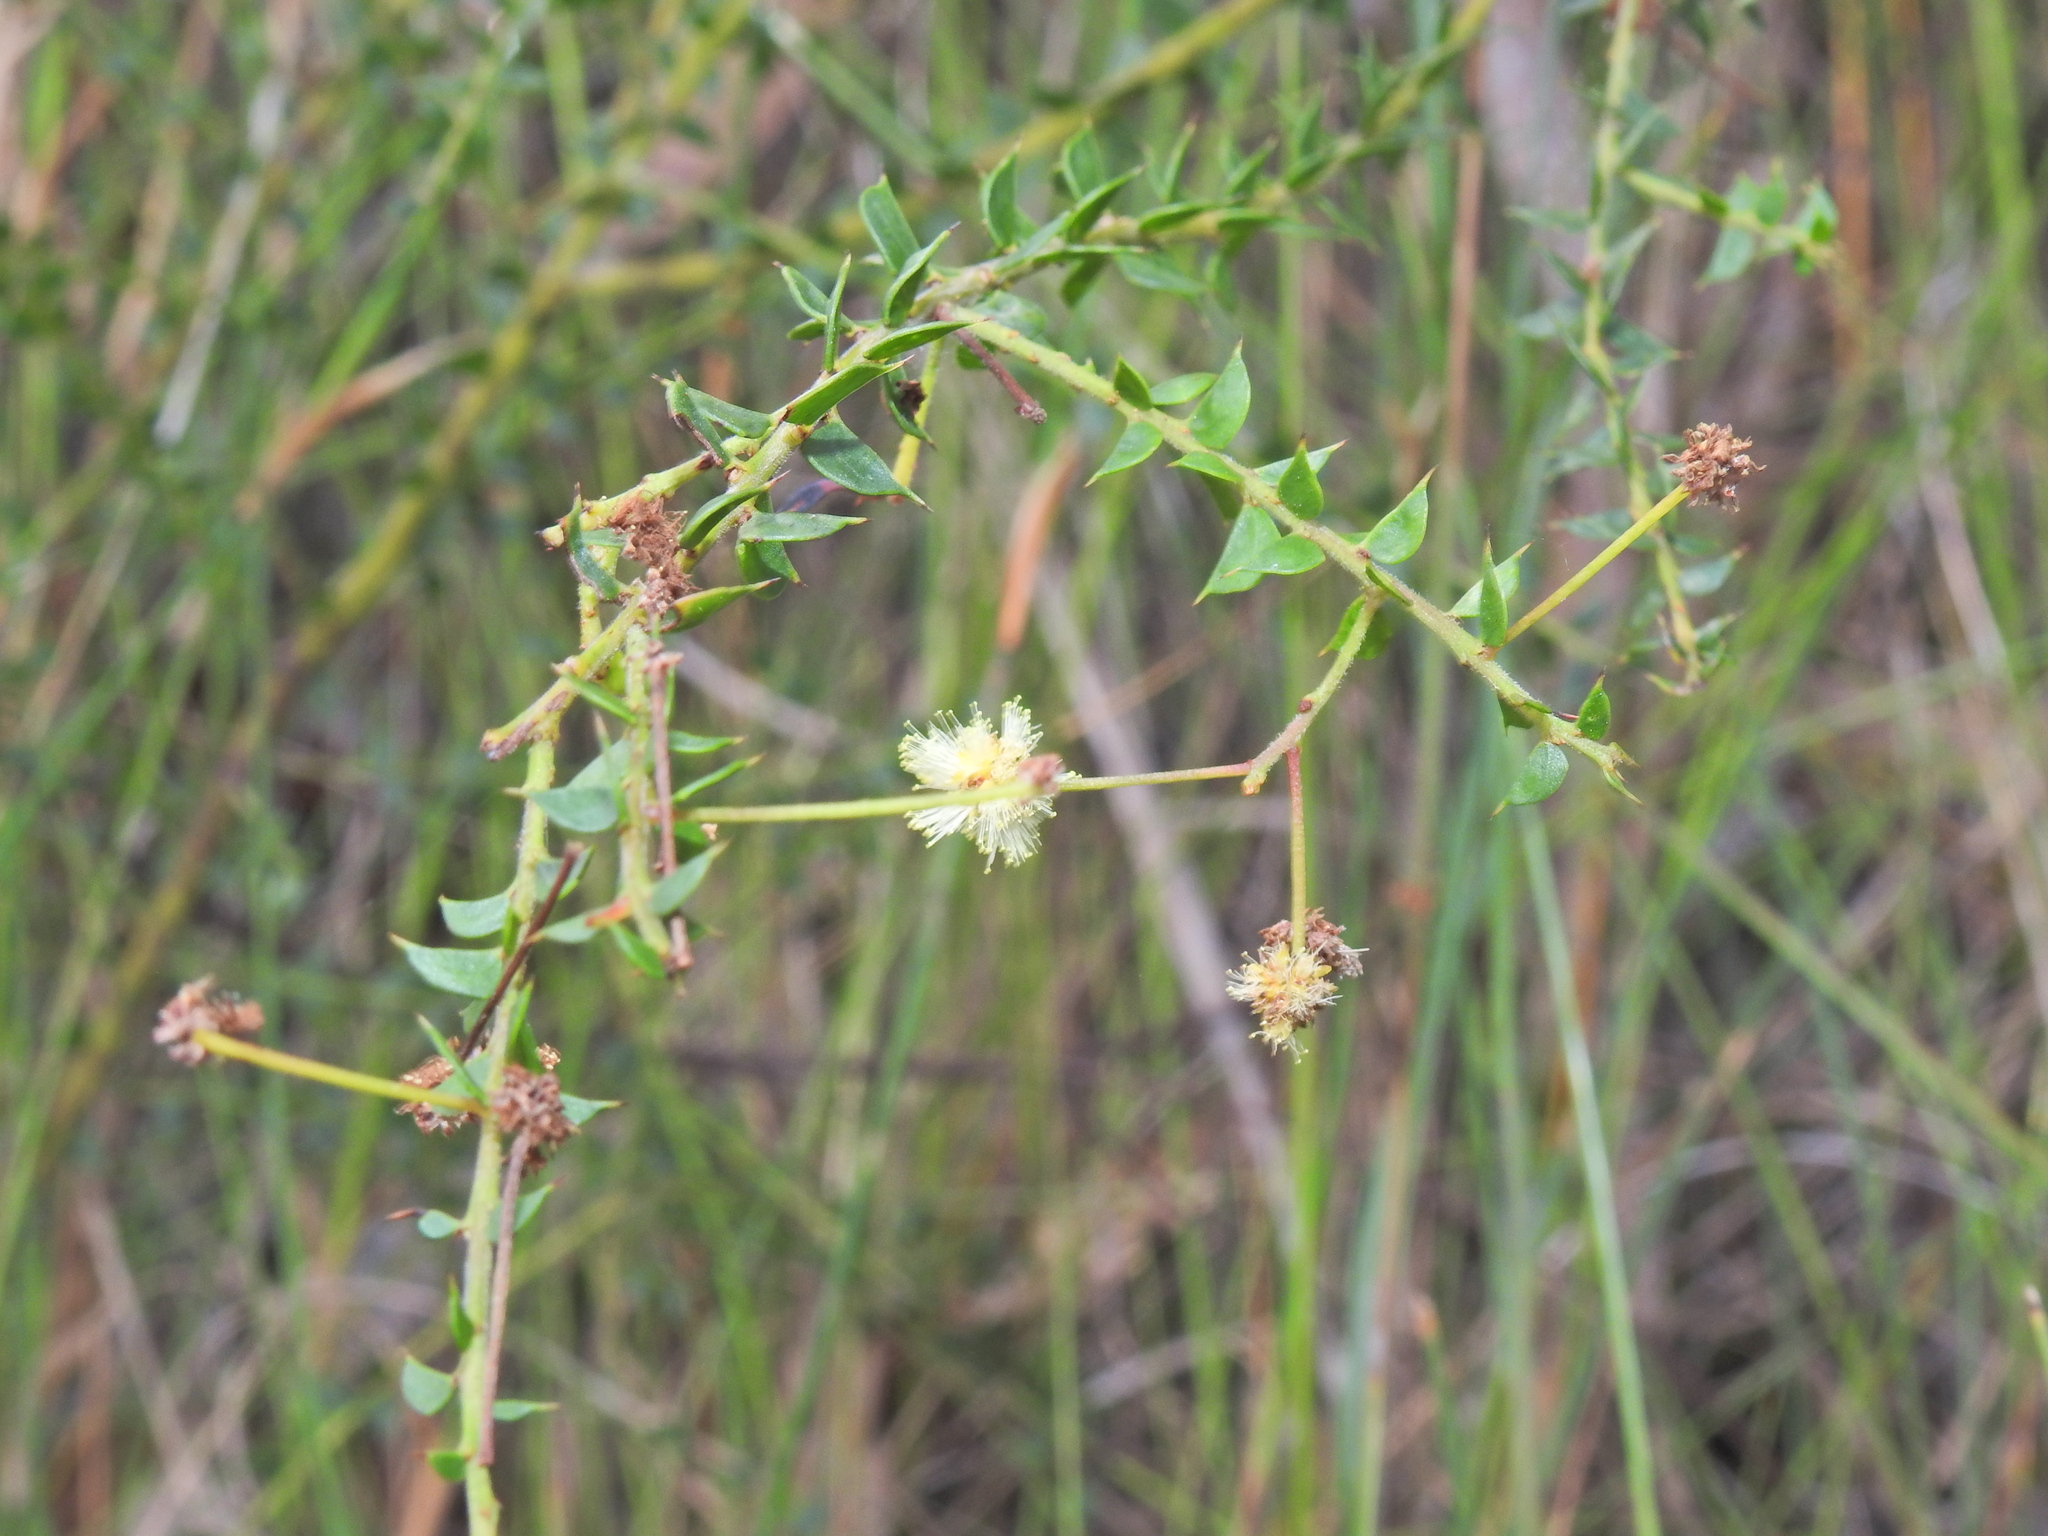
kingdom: Plantae
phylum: Tracheophyta
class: Magnoliopsida
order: Fabales
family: Fabaceae
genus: Acacia
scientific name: Acacia hubbardiana
